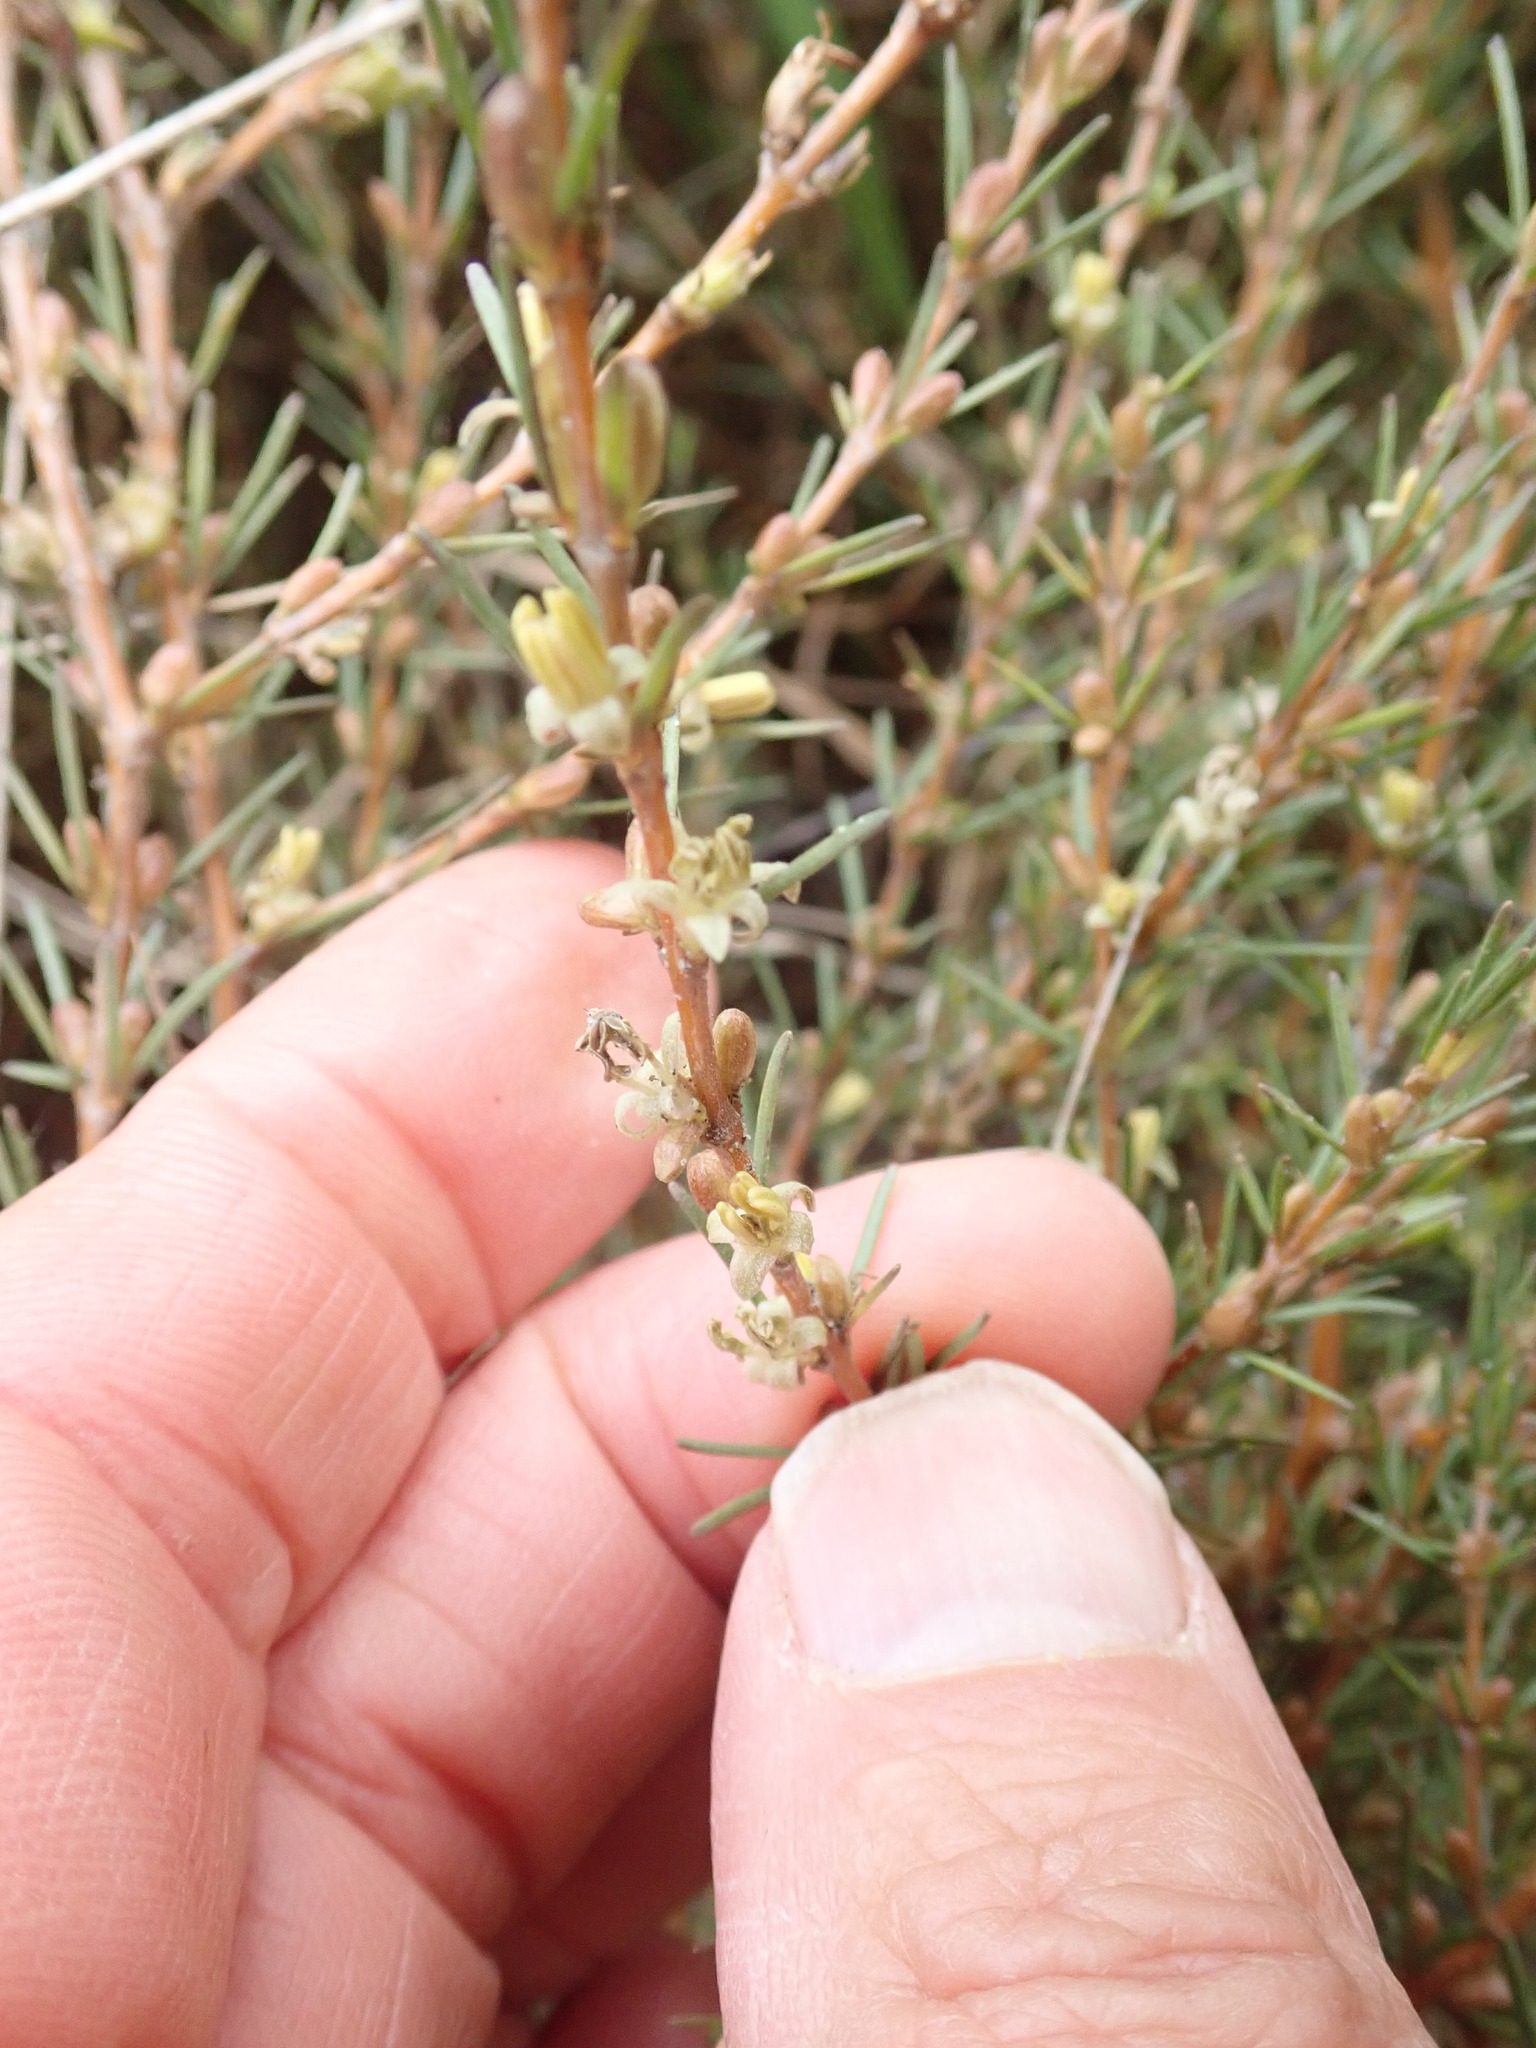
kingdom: Plantae
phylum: Tracheophyta
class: Magnoliopsida
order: Gentianales
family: Rubiaceae
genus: Coprosma
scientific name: Coprosma acerosa
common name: Sand coprosma
